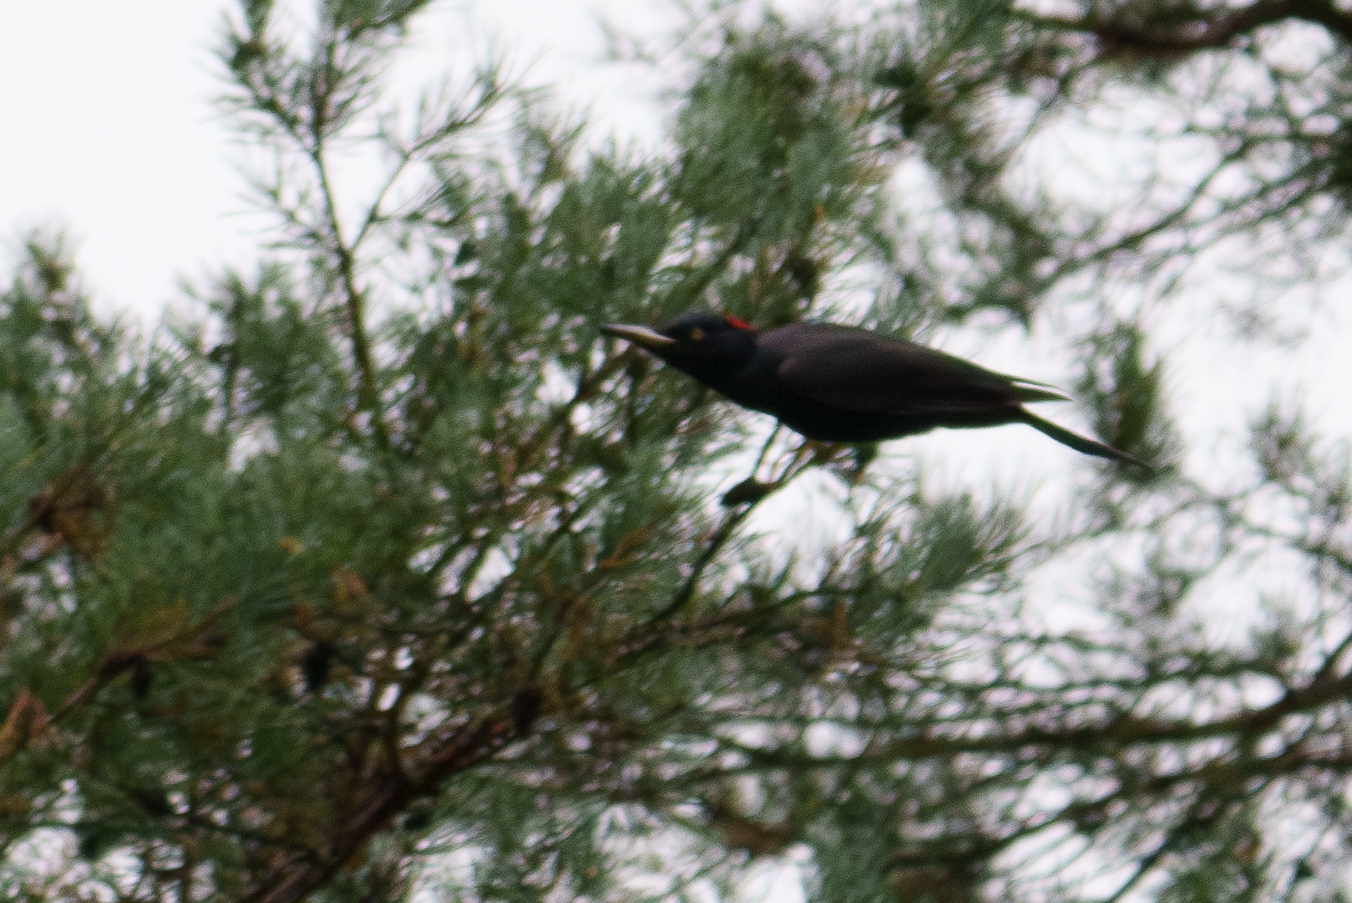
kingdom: Animalia
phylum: Chordata
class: Aves
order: Piciformes
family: Picidae
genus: Dryocopus
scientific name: Dryocopus martius
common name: Black woodpecker
